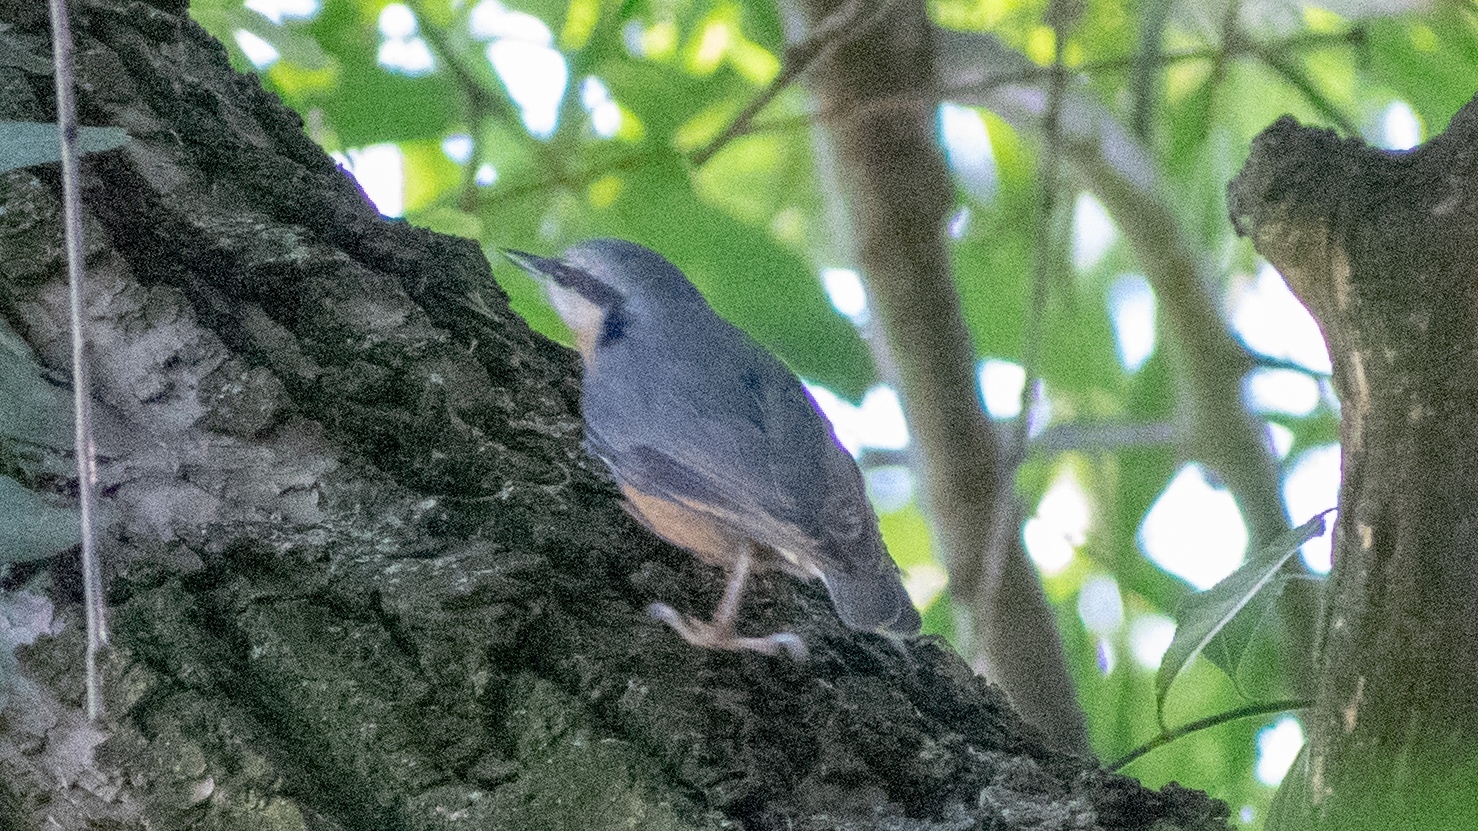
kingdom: Animalia
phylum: Chordata
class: Aves
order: Passeriformes
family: Sittidae
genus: Sitta
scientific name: Sitta europaea
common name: Eurasian nuthatch
